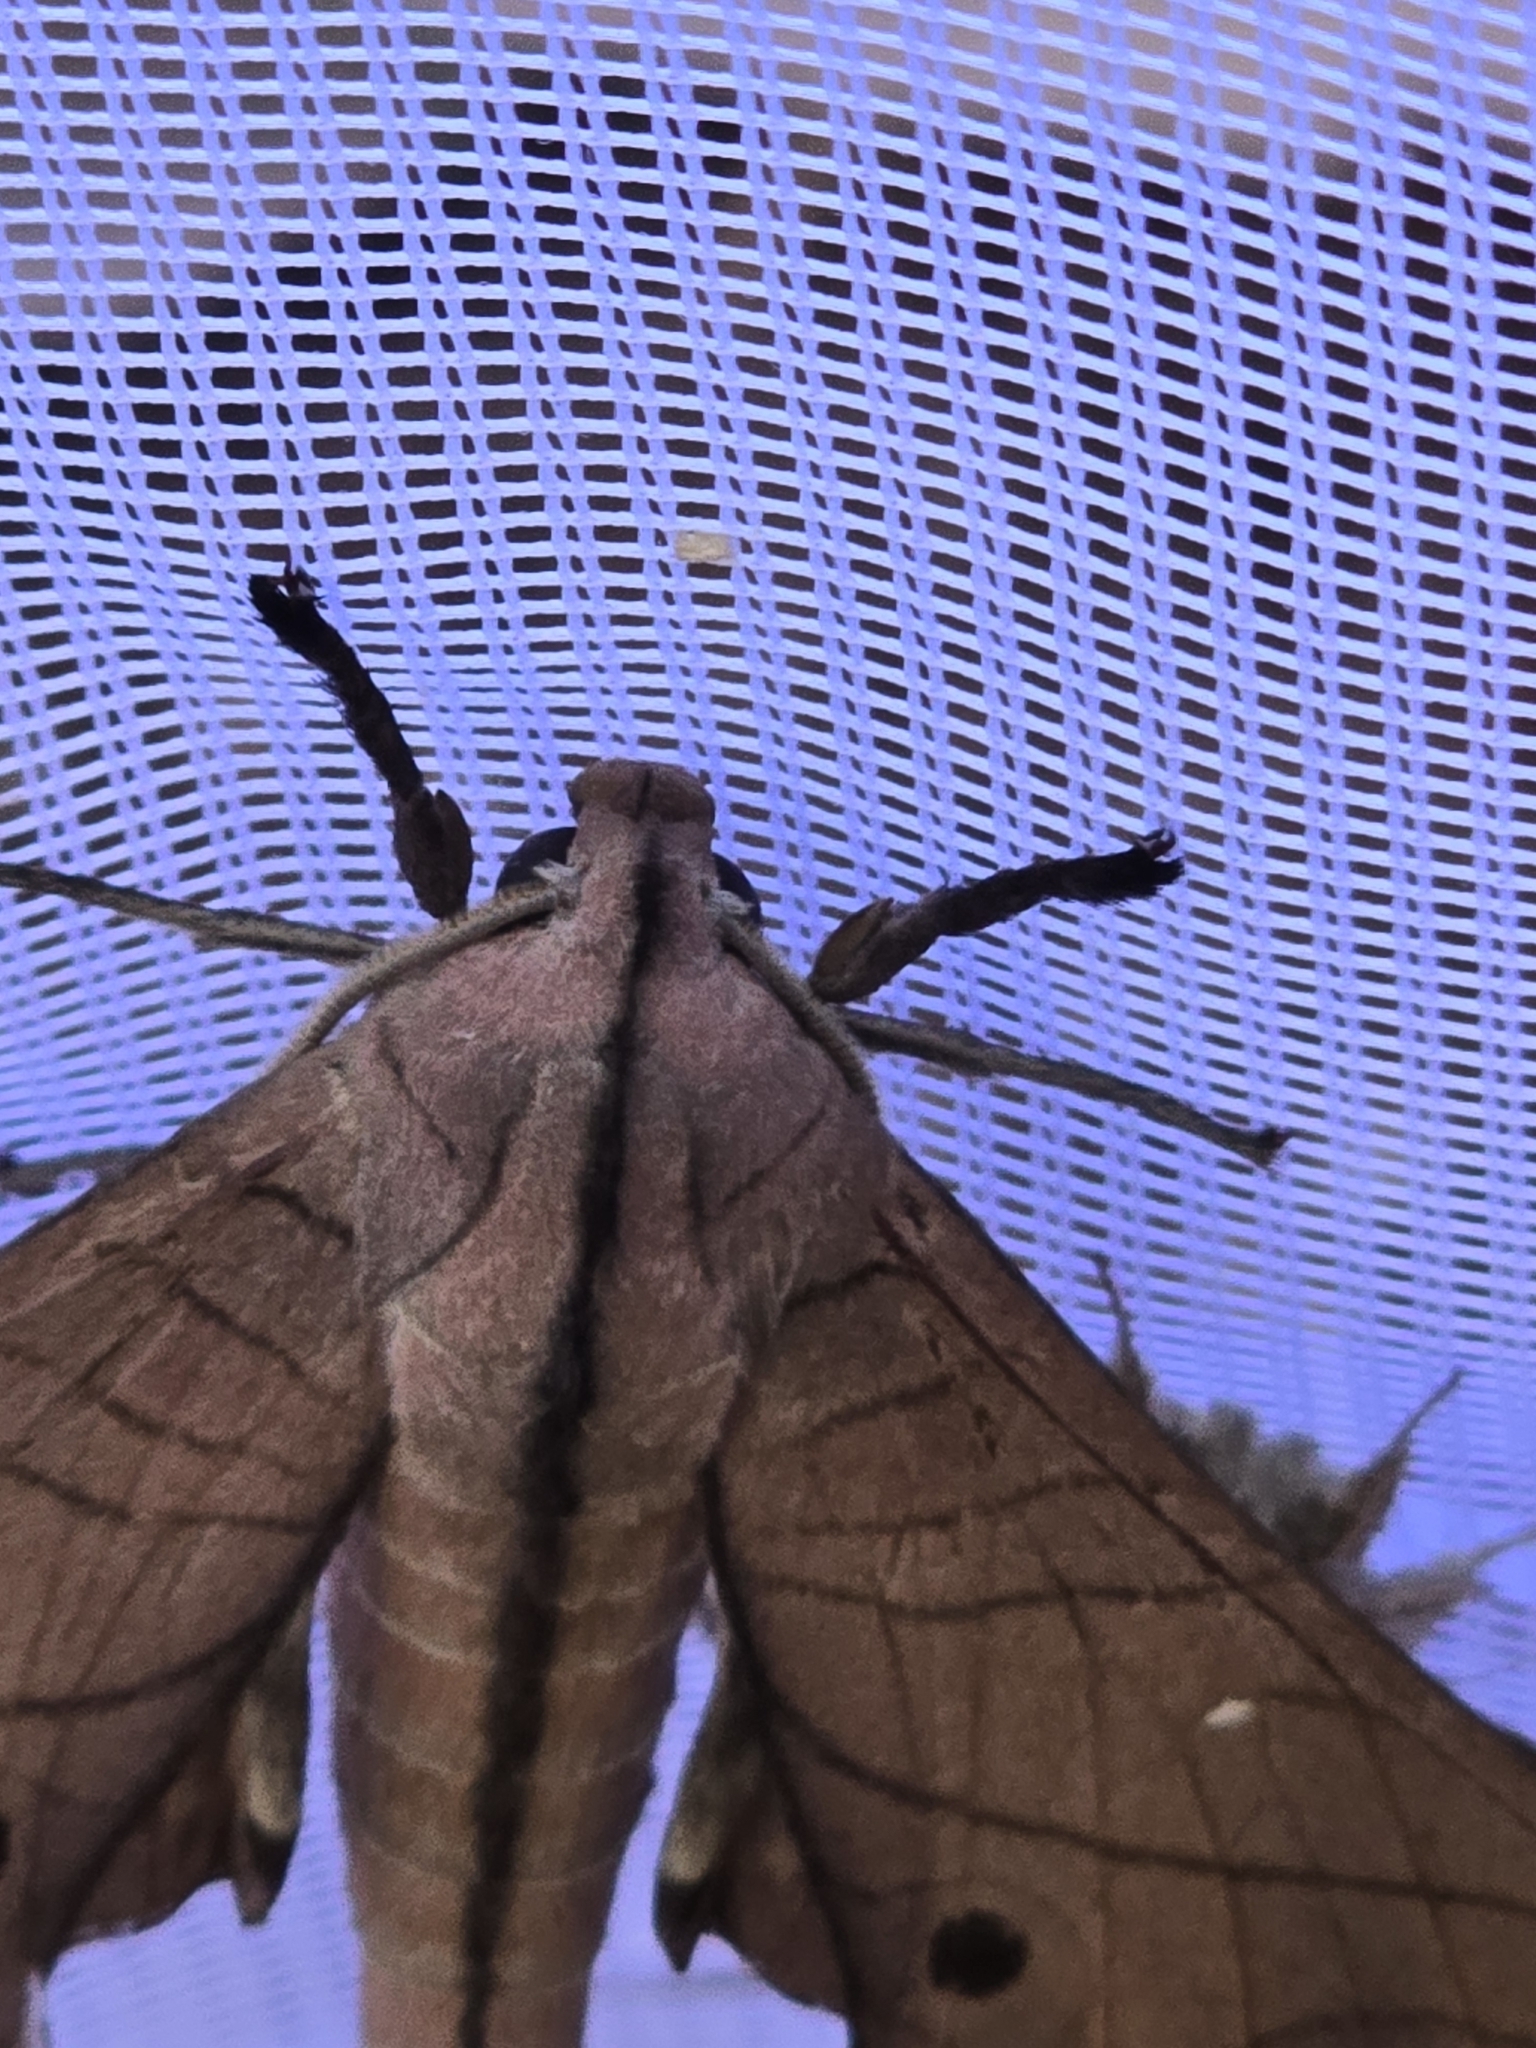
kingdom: Animalia
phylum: Arthropoda
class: Insecta
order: Lepidoptera
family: Sphingidae
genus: Marumba
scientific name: Marumba cristata
